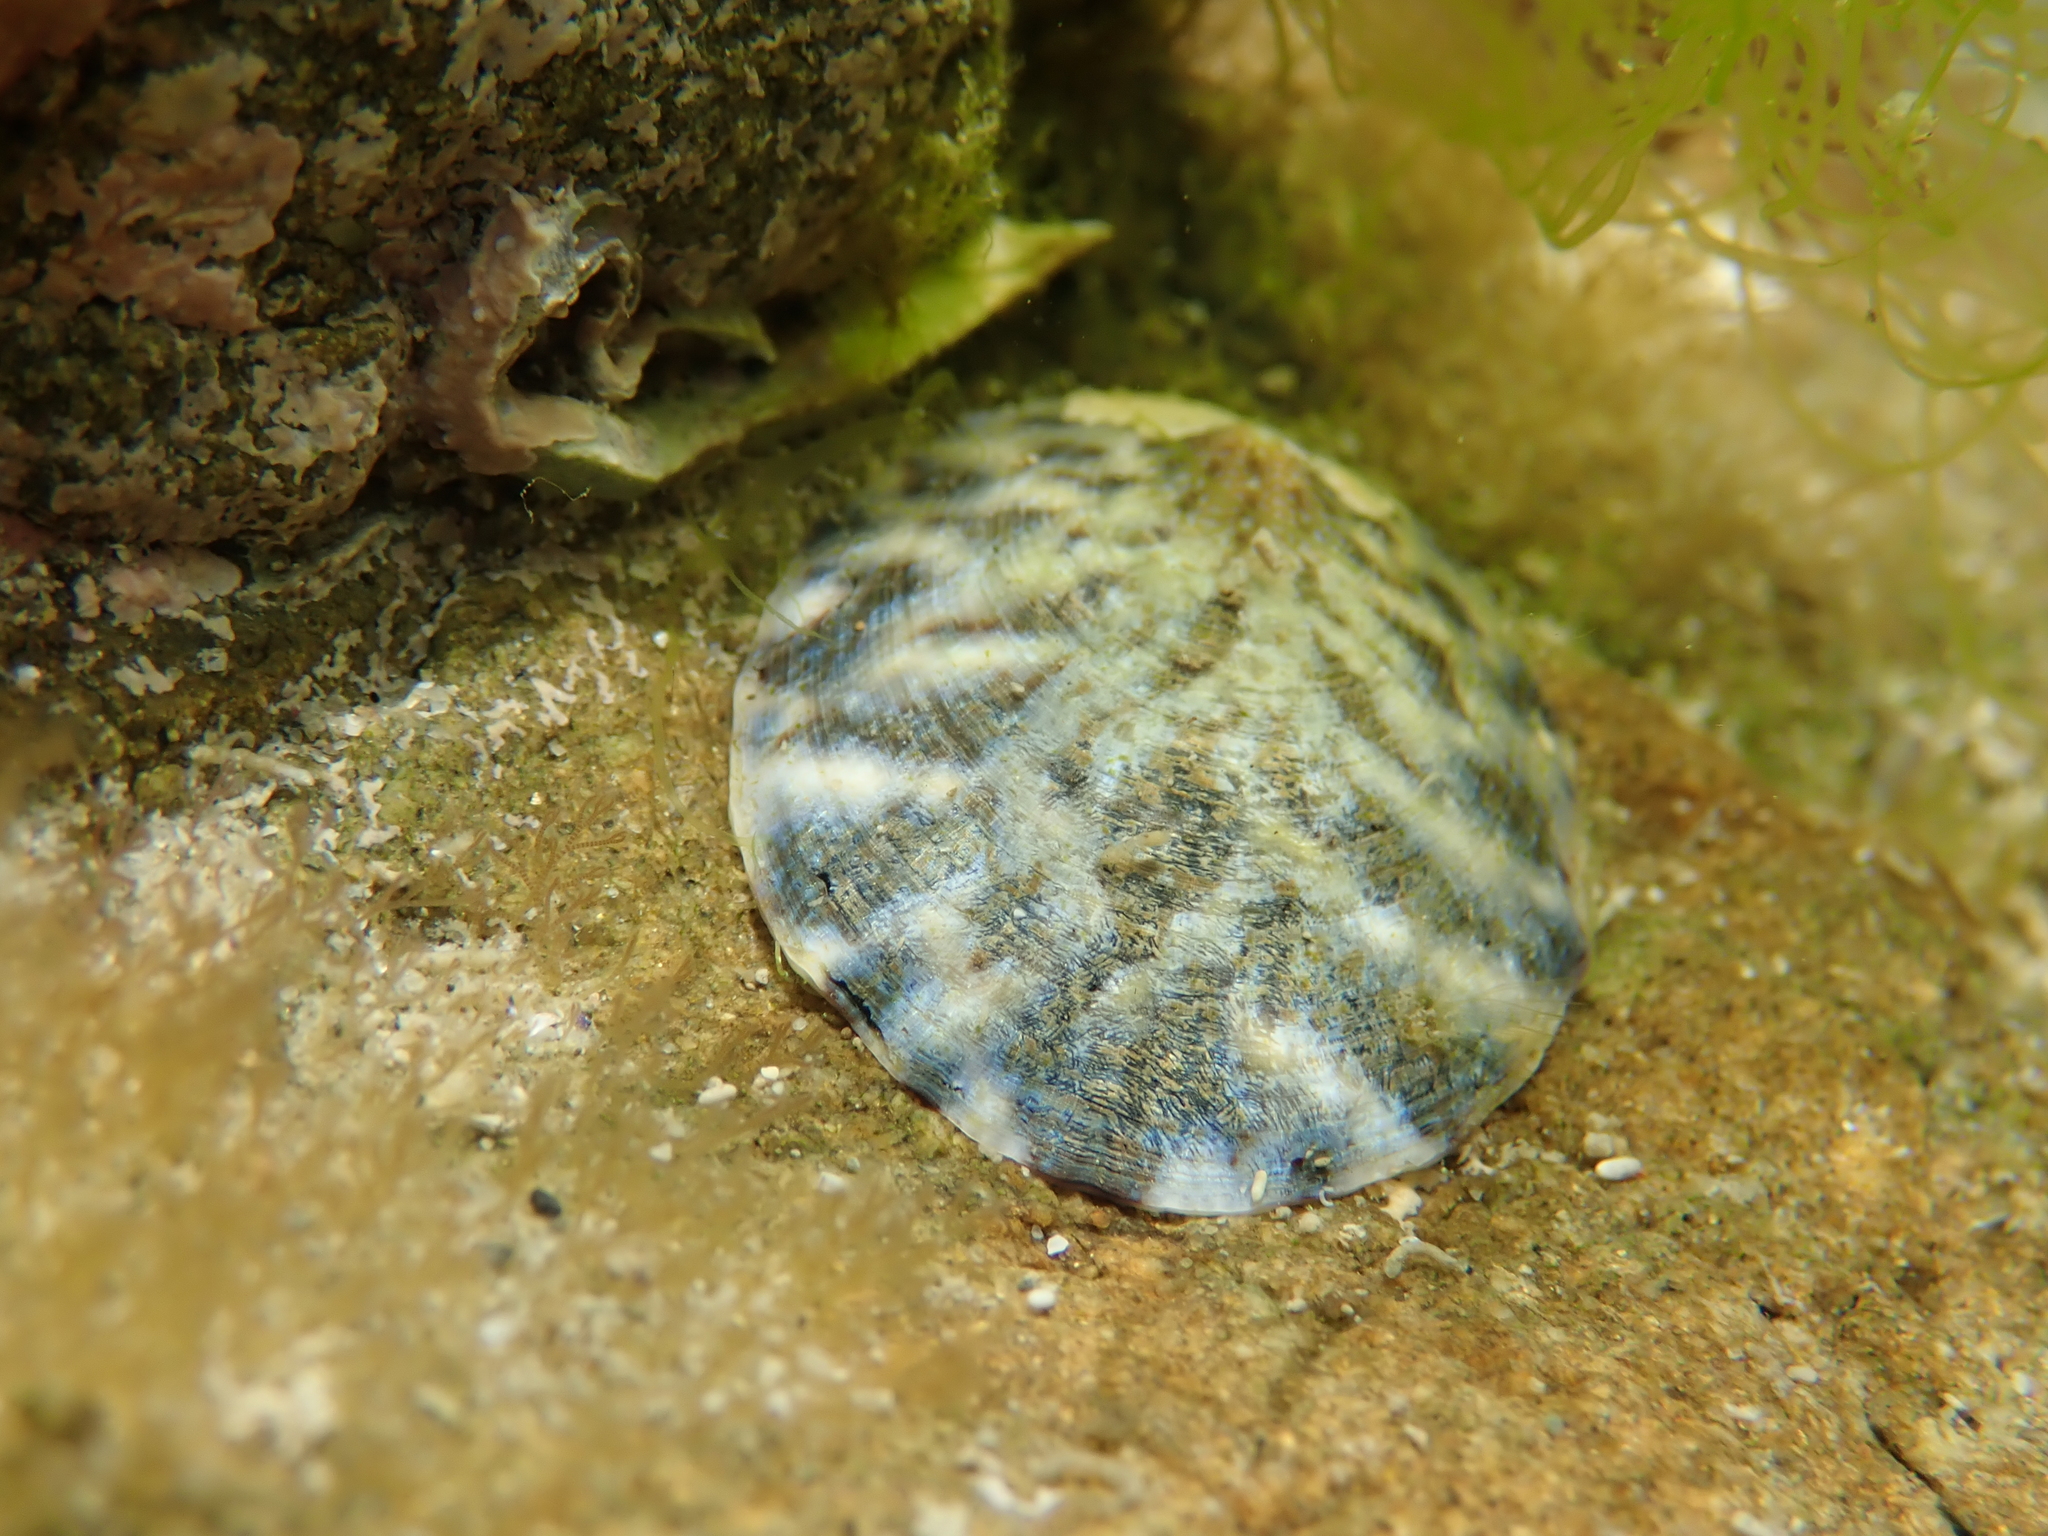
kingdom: Animalia
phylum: Mollusca
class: Gastropoda
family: Nacellidae
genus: Cellana
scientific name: Cellana radians
